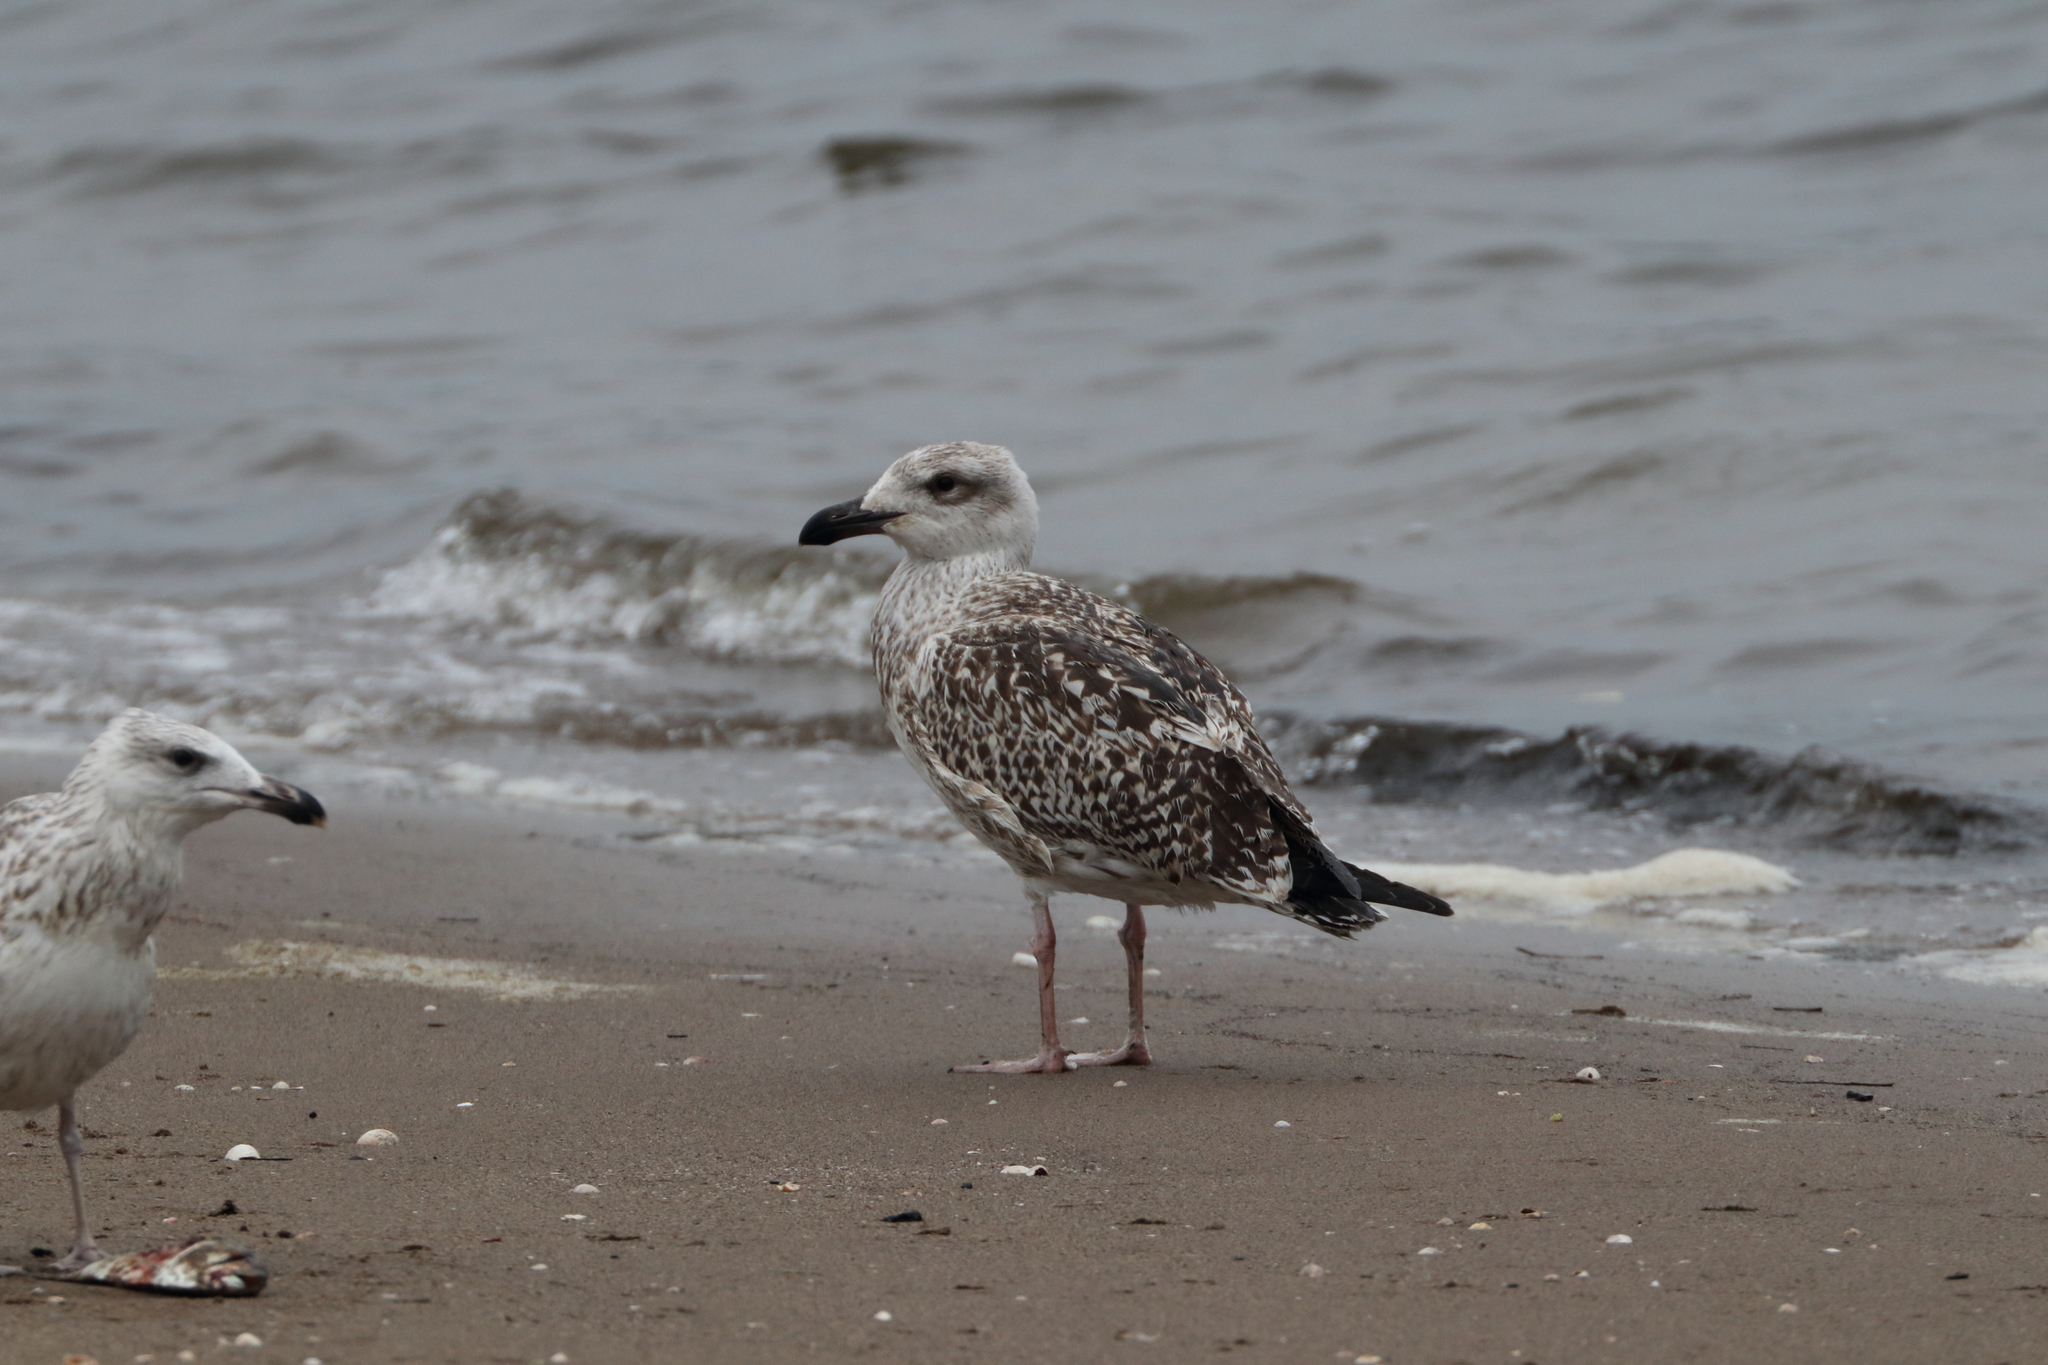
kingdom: Animalia
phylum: Chordata
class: Aves
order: Charadriiformes
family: Laridae
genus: Larus
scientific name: Larus marinus
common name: Great black-backed gull
